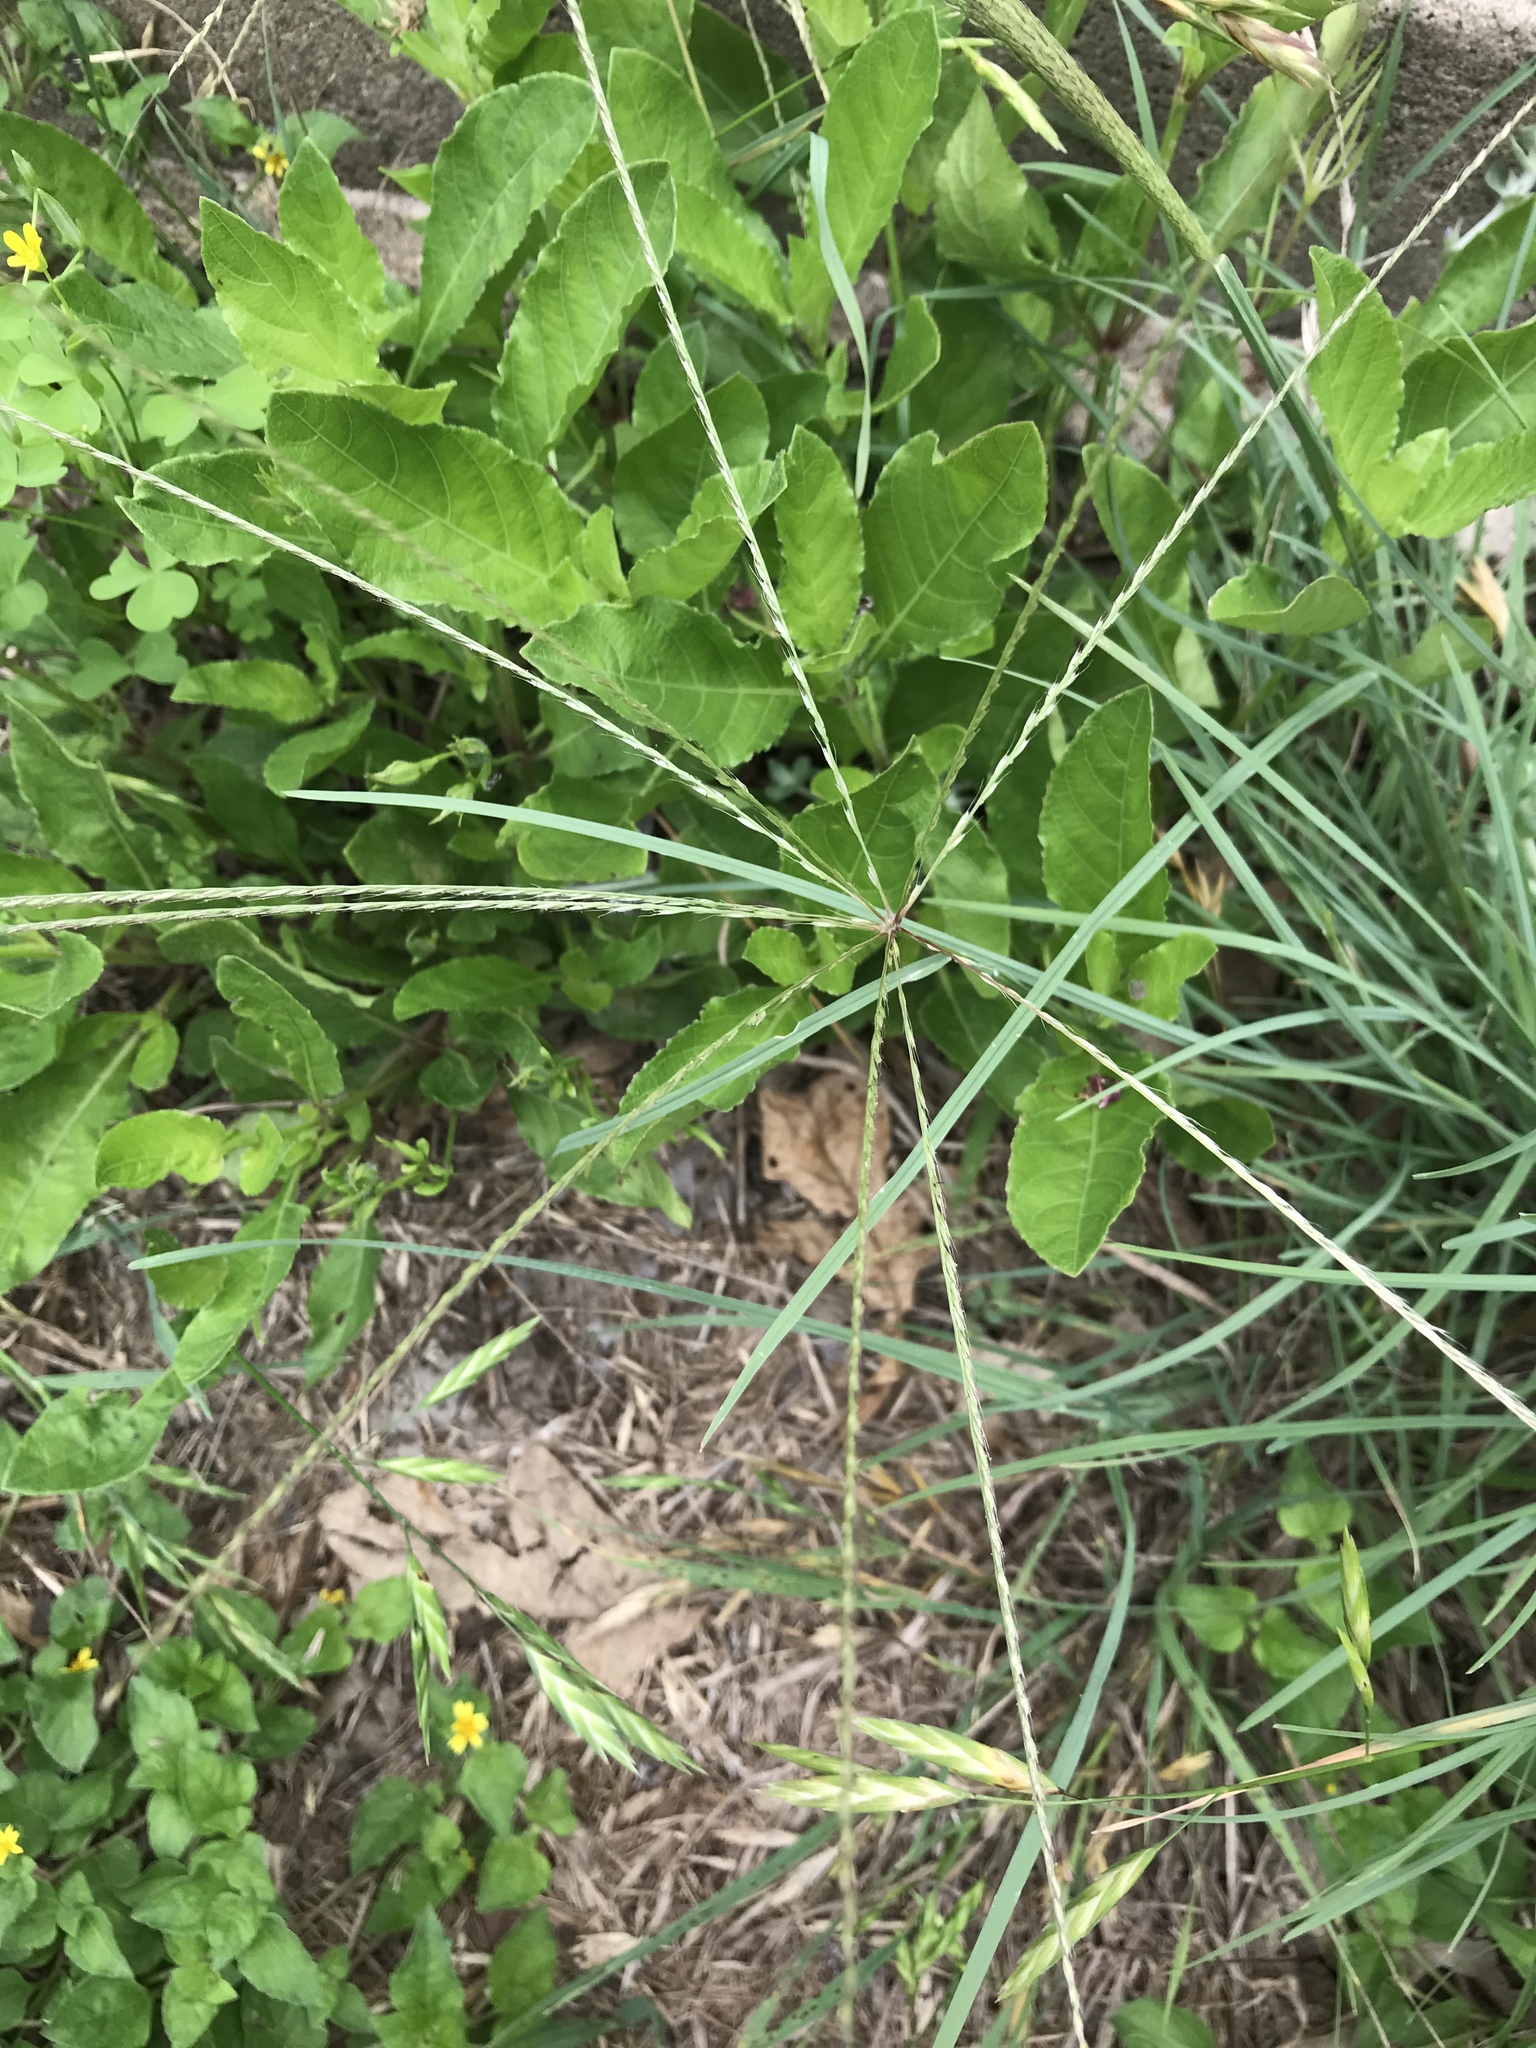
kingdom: Plantae
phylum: Tracheophyta
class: Liliopsida
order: Poales
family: Poaceae
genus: Chloris
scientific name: Chloris andropogonoides
